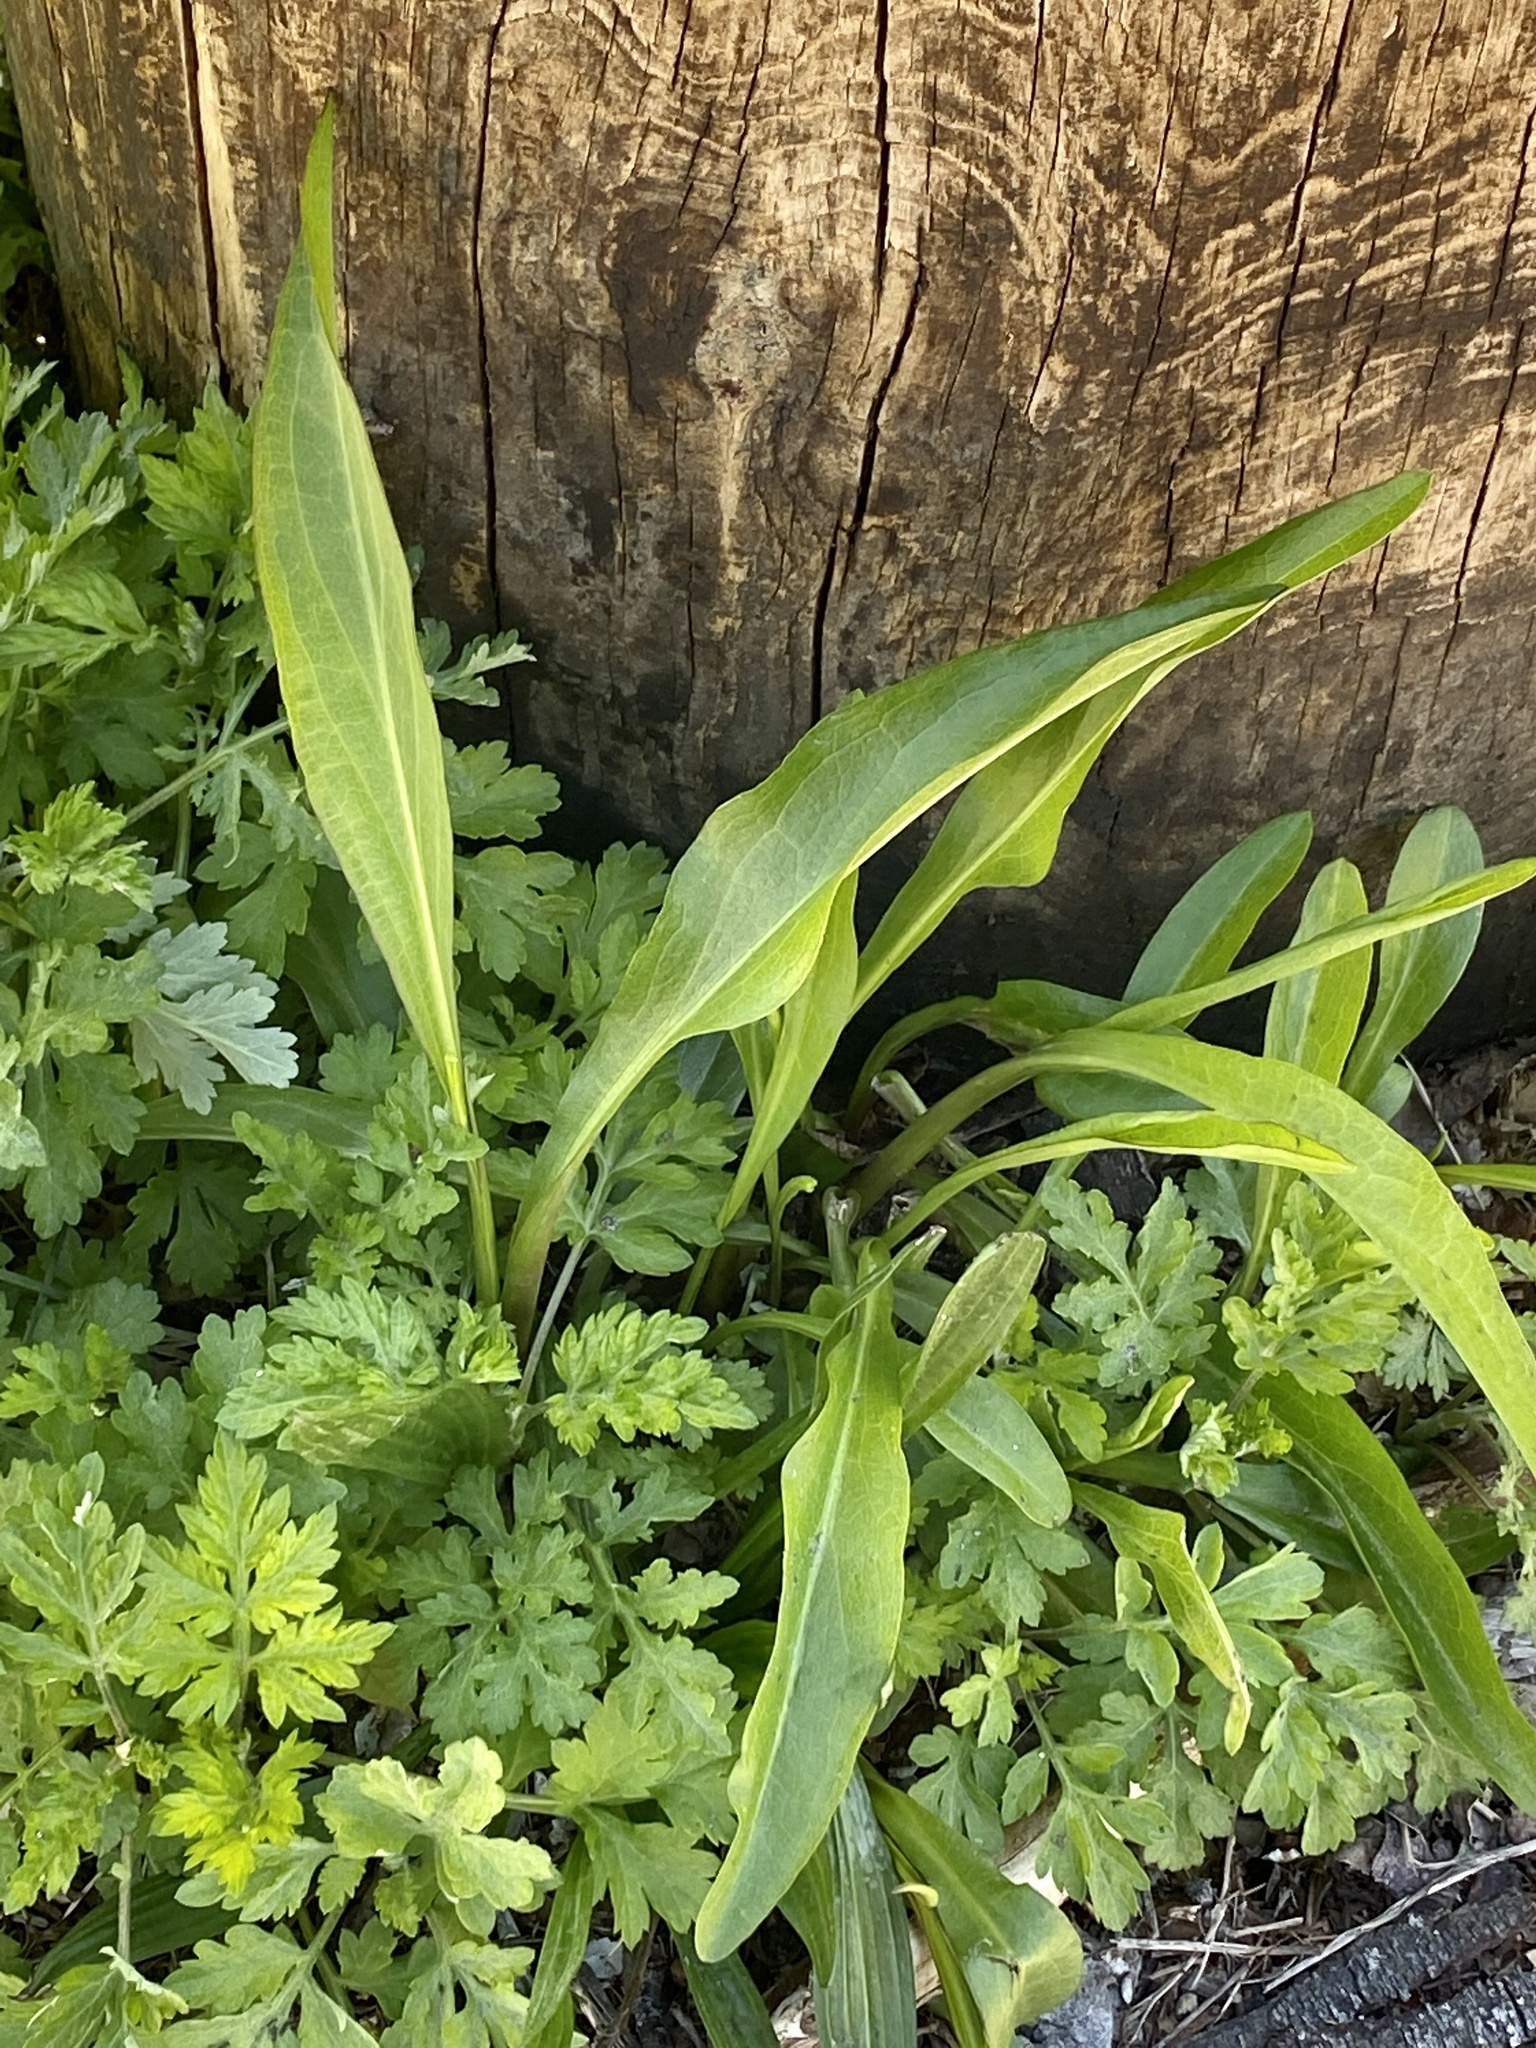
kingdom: Plantae
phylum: Tracheophyta
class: Magnoliopsida
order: Asterales
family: Asteraceae
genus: Solidago
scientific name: Solidago sempervirens
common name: Salt-marsh goldenrod
